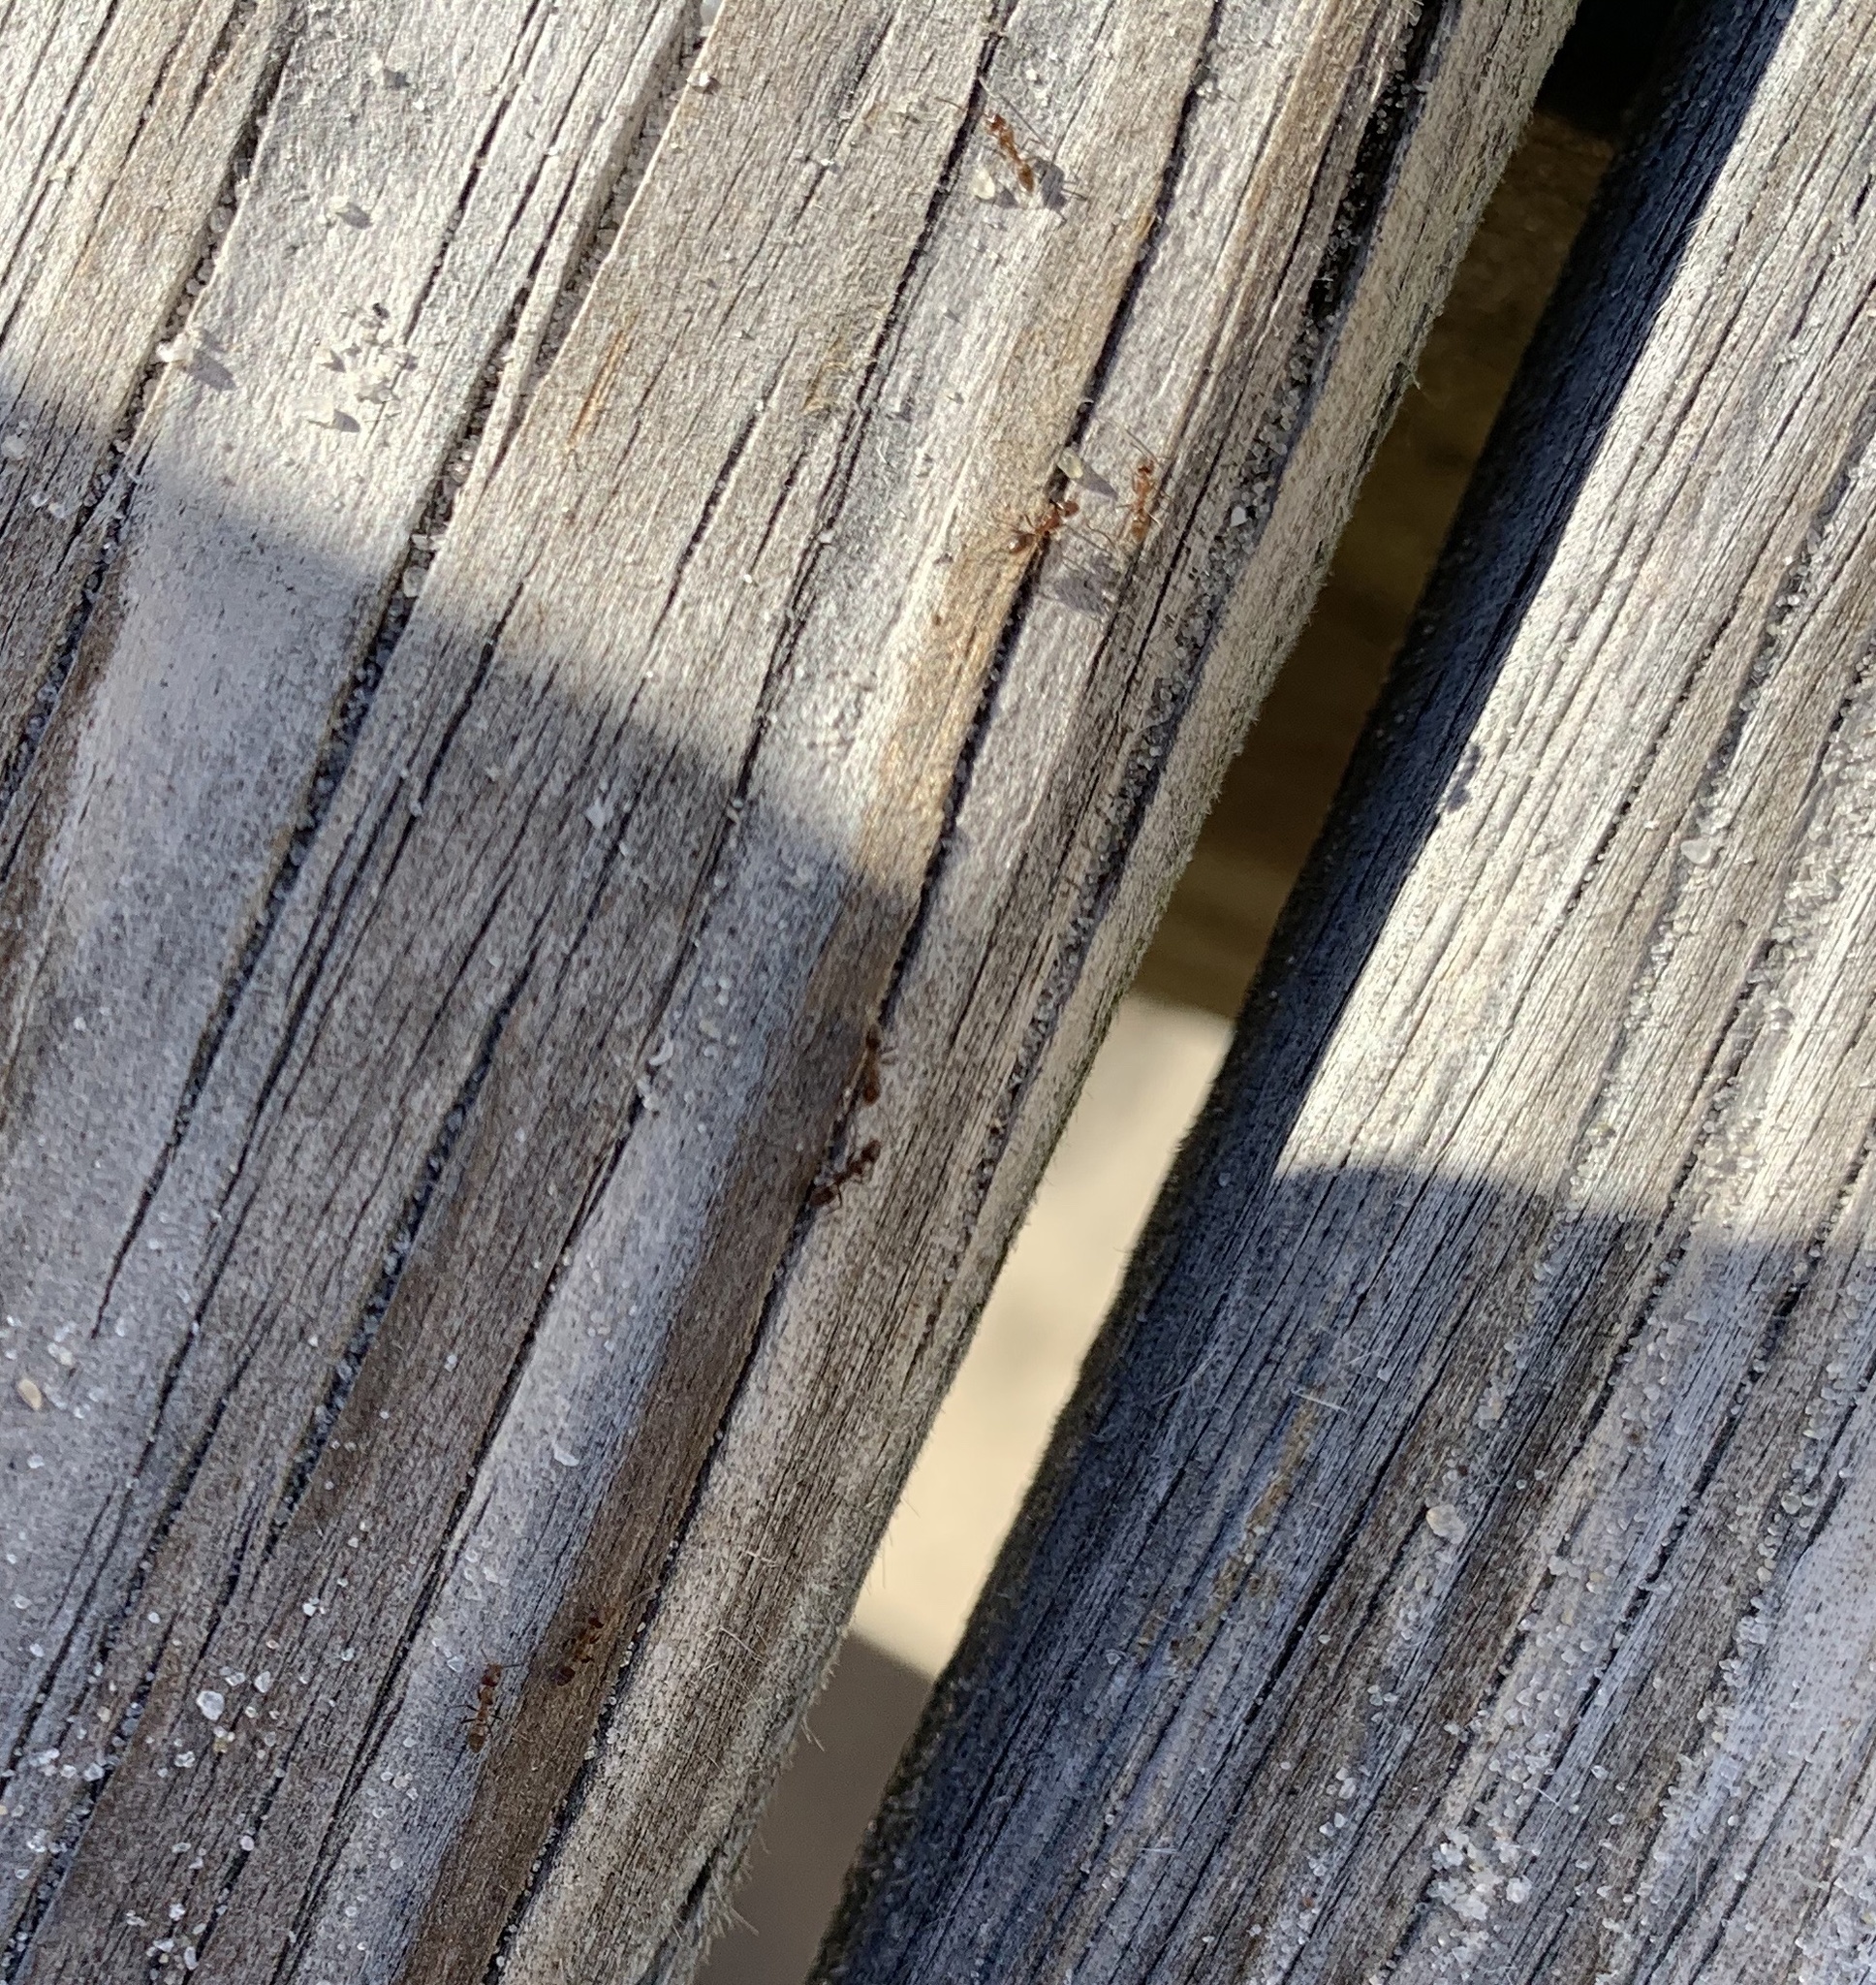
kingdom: Animalia
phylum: Arthropoda
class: Insecta
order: Hymenoptera
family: Formicidae
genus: Linepithema
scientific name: Linepithema humile
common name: Argentine ant
